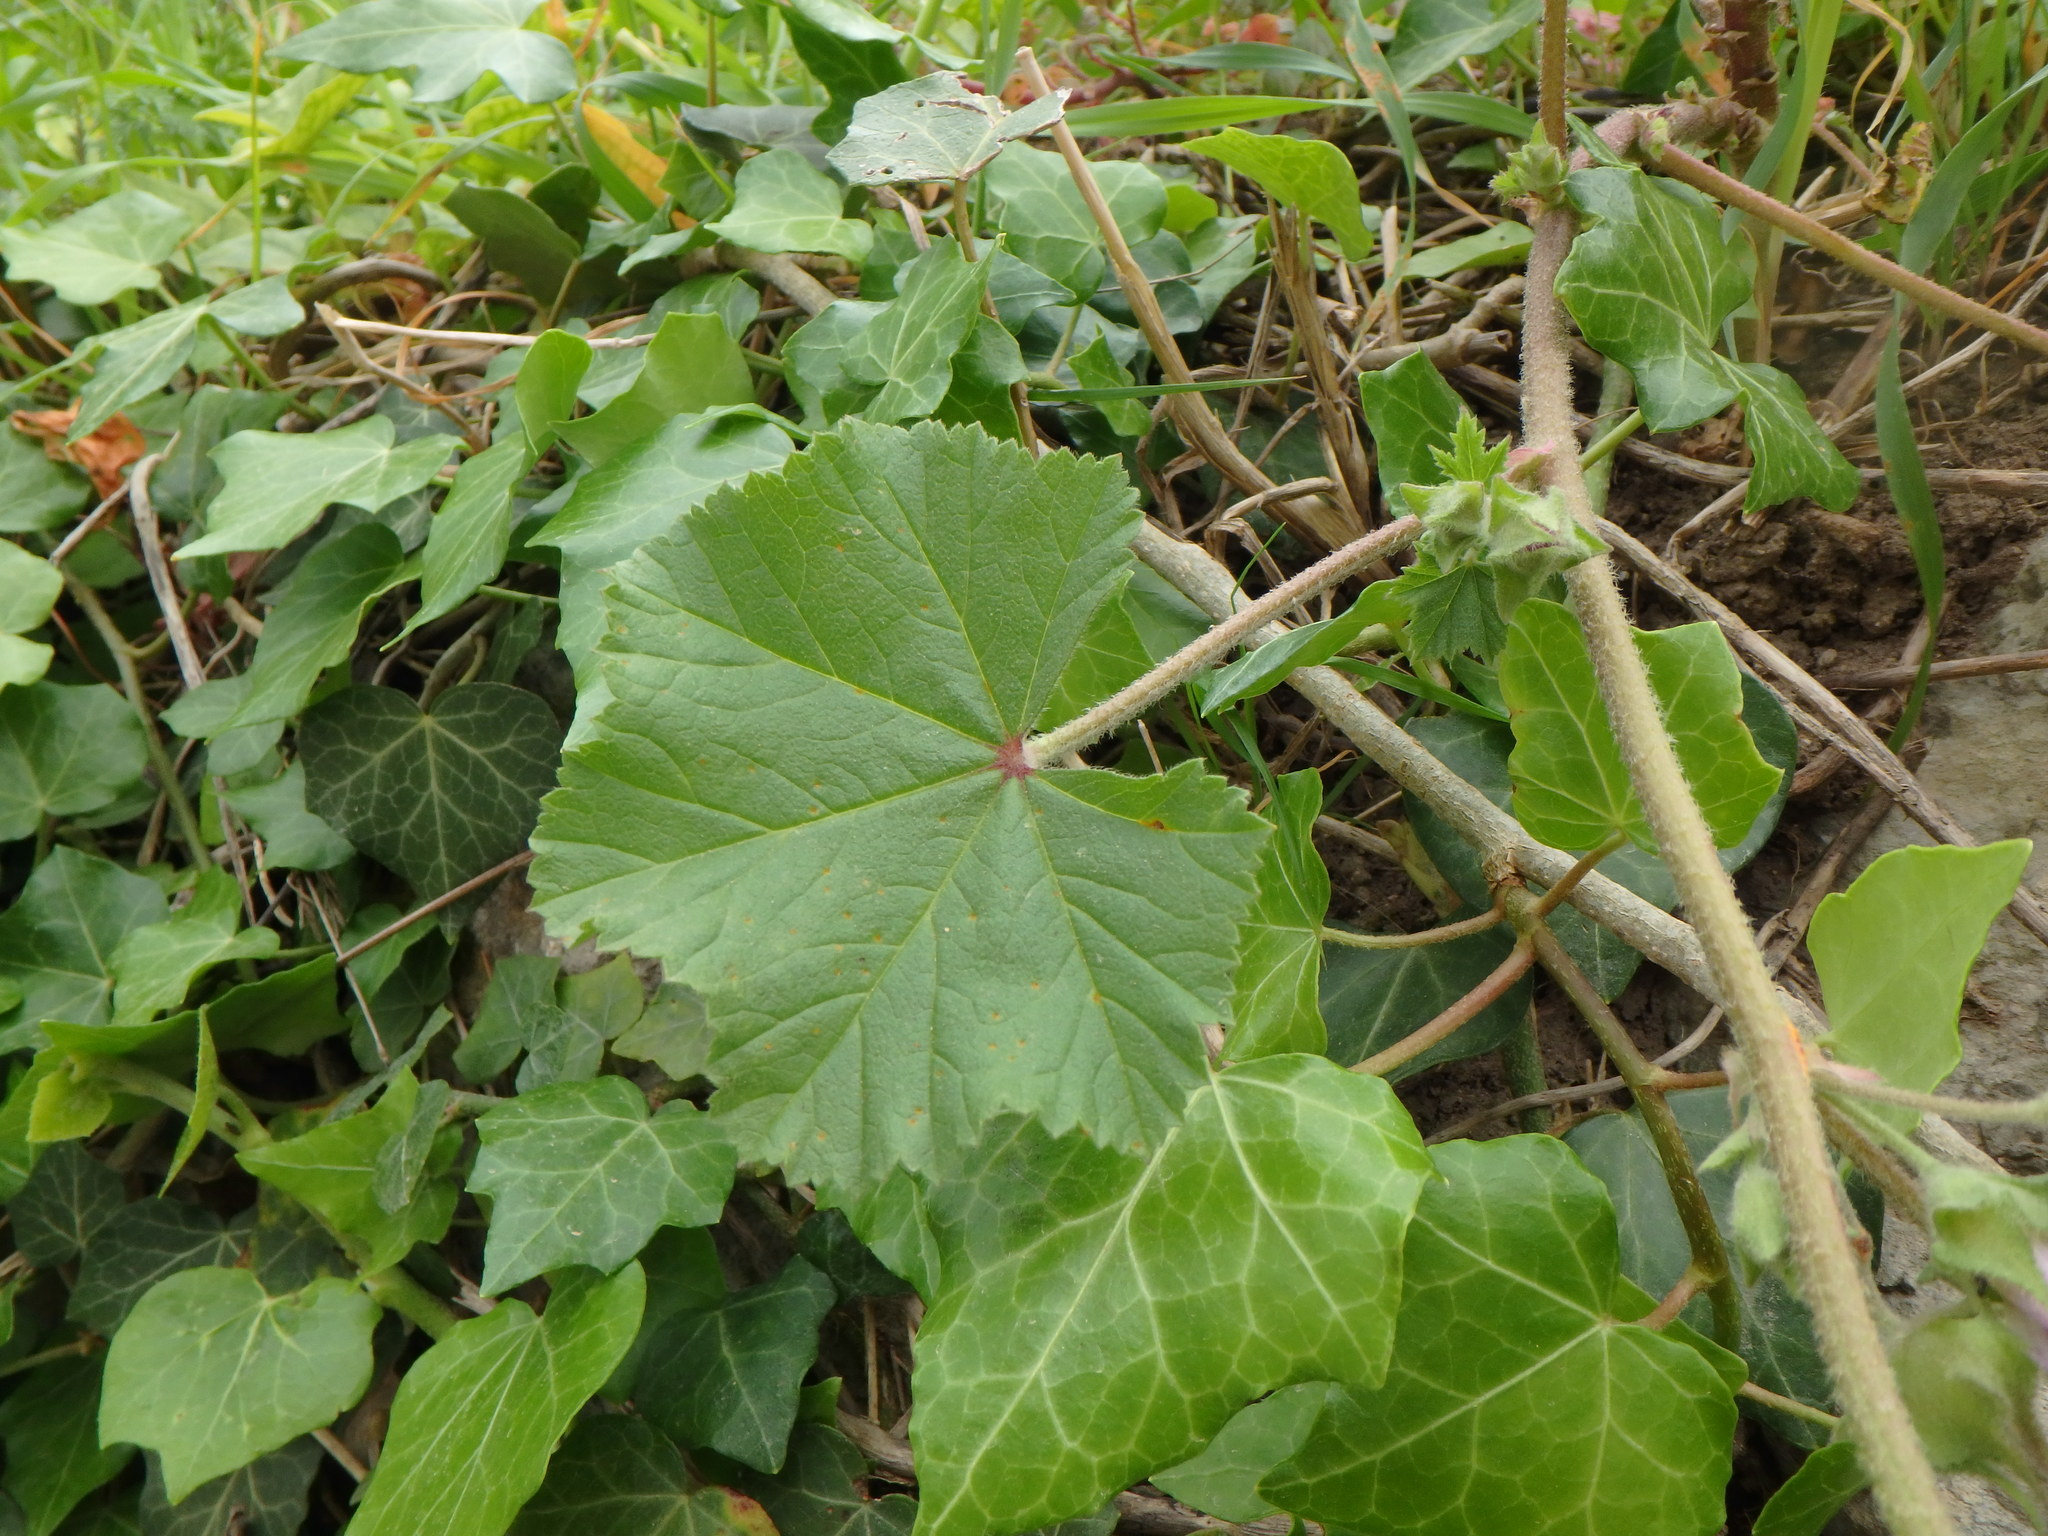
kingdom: Plantae
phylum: Tracheophyta
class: Magnoliopsida
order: Malvales
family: Malvaceae
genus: Malva
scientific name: Malva sylvestris
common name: Common mallow
